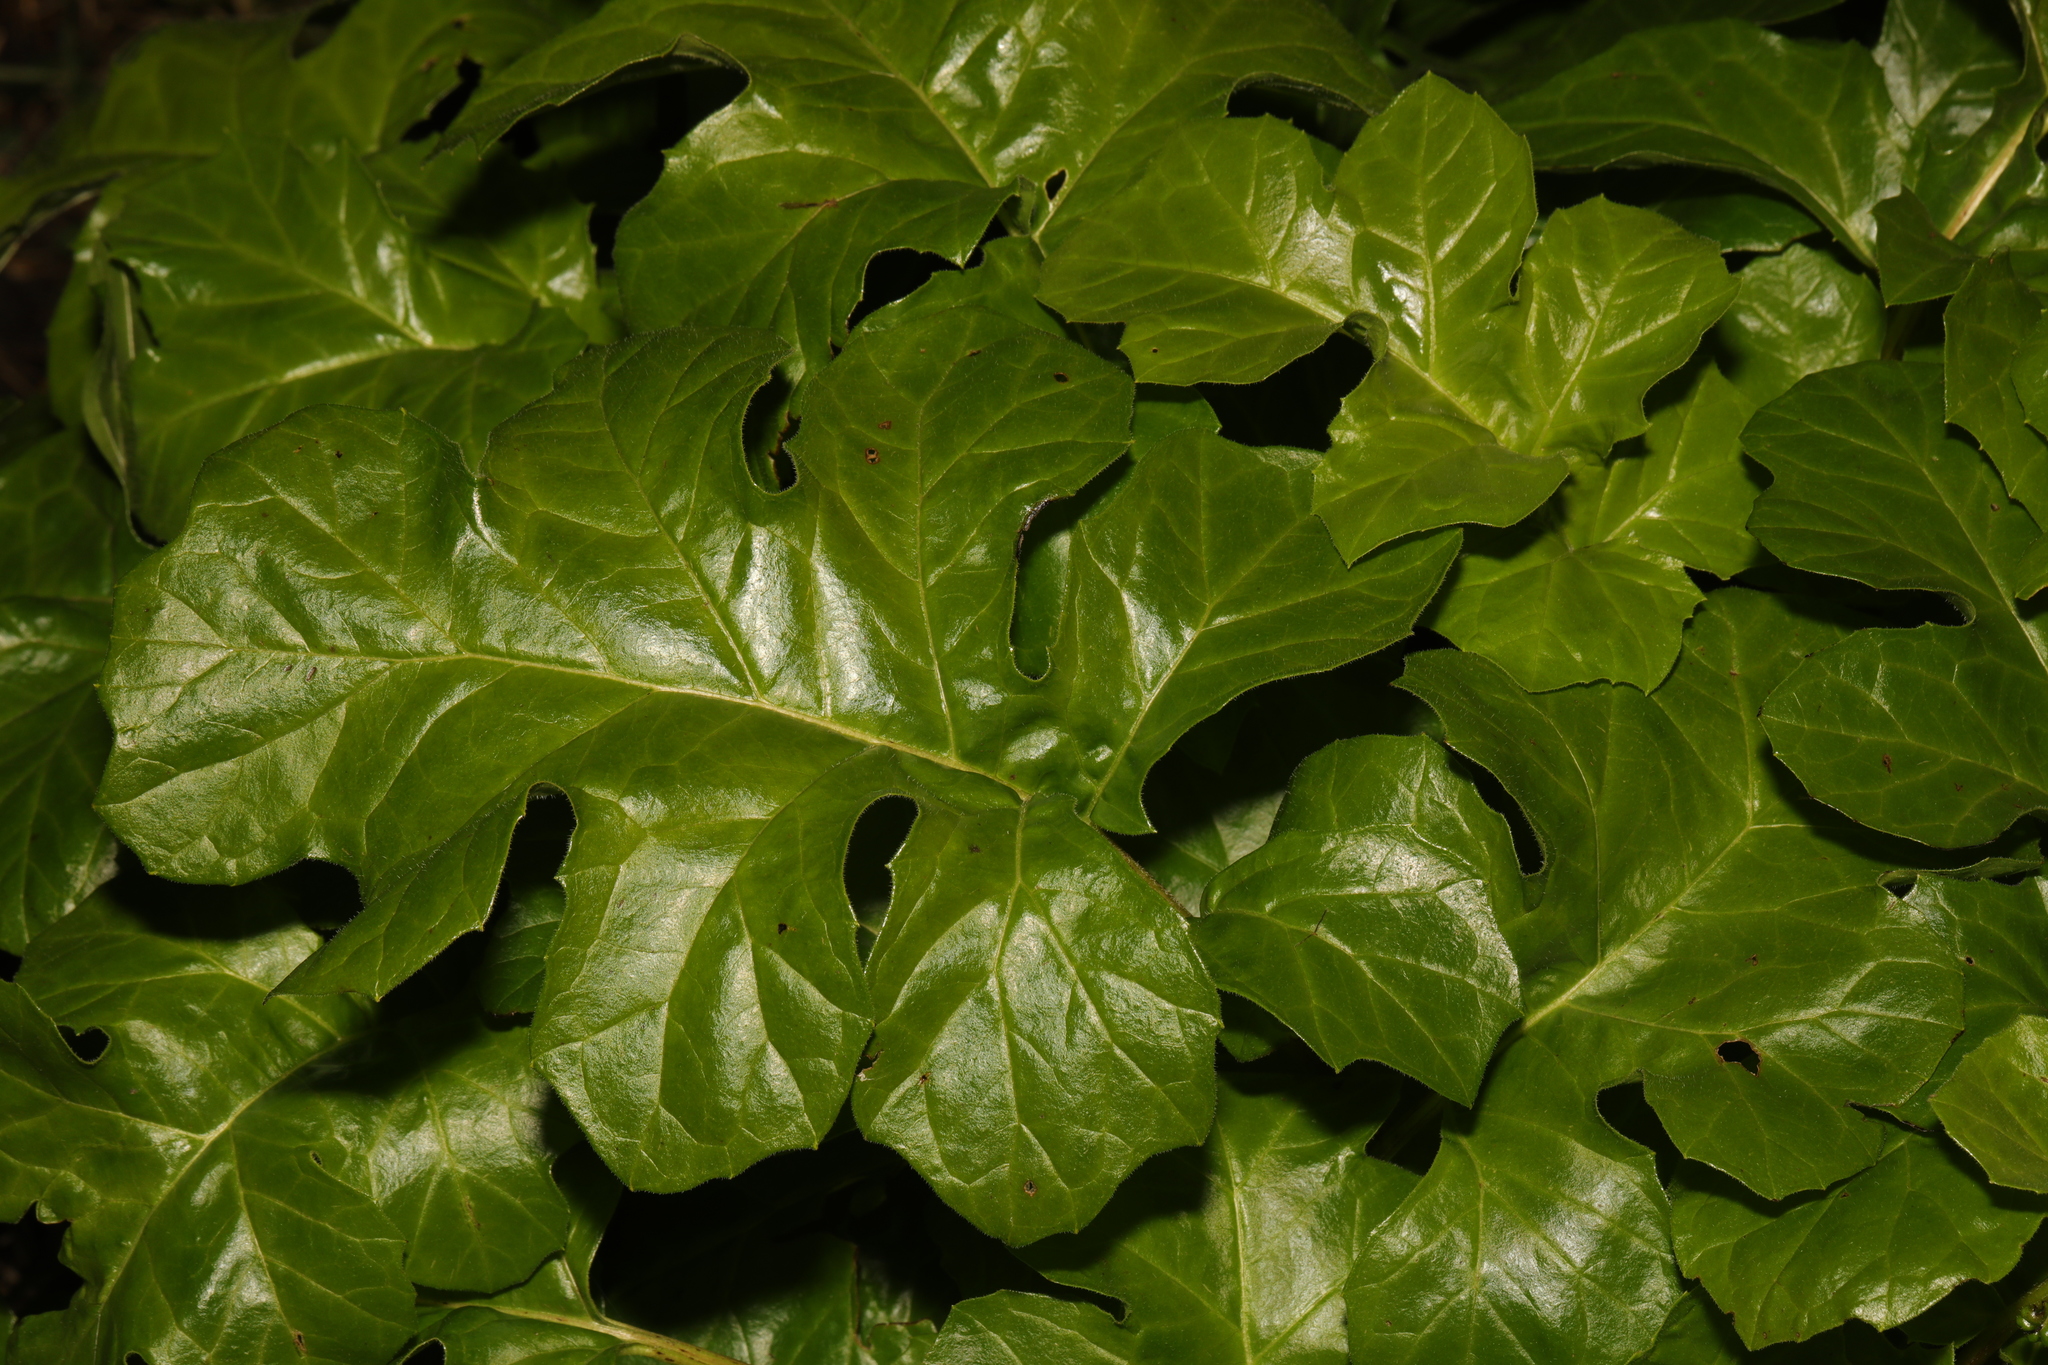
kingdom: Plantae
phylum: Tracheophyta
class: Magnoliopsida
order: Lamiales
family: Acanthaceae
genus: Acanthus
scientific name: Acanthus mollis
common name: Bear's-breech
